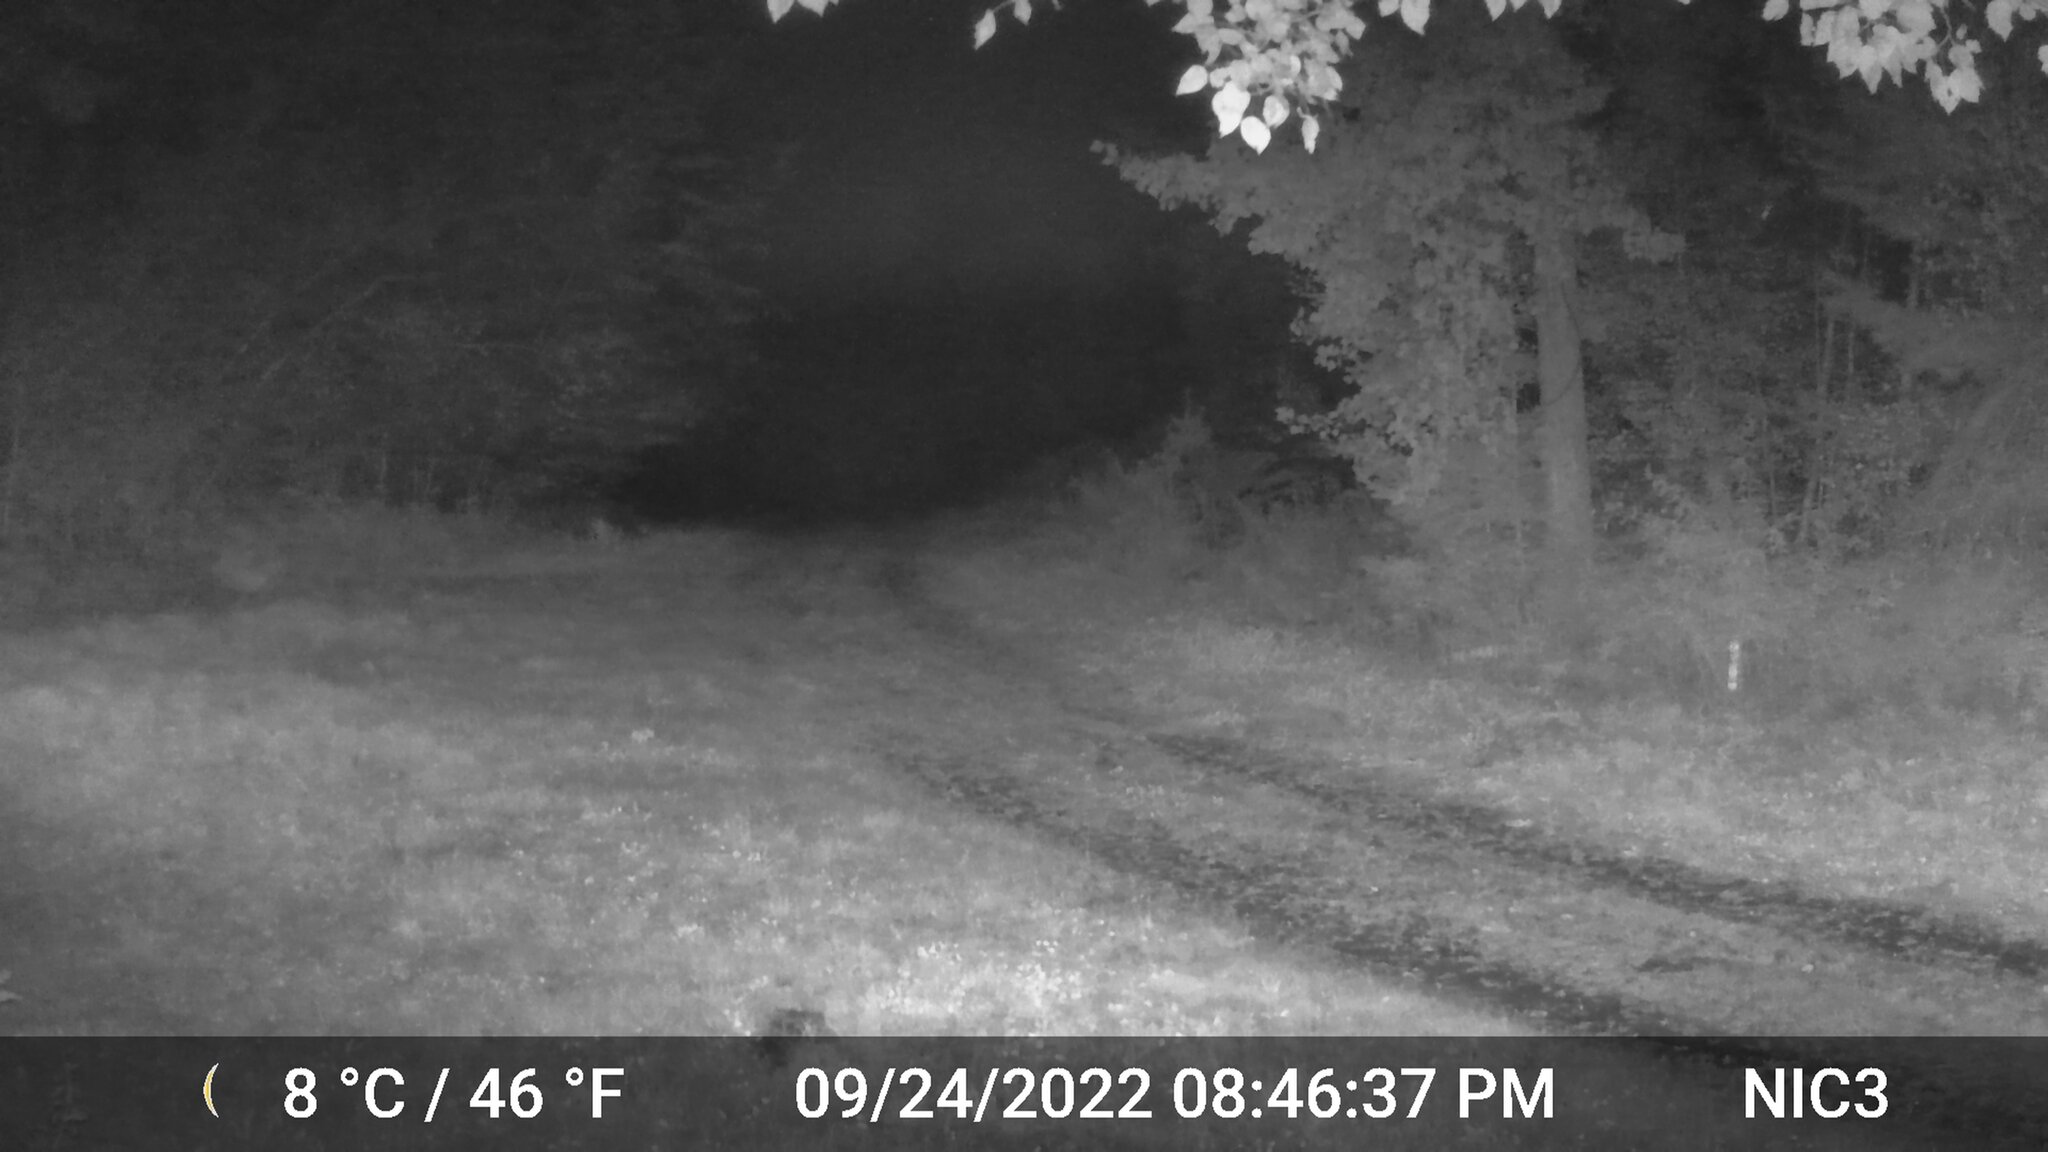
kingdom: Animalia
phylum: Chordata
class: Mammalia
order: Artiodactyla
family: Cervidae
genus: Odocoileus
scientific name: Odocoileus virginianus
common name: White-tailed deer
